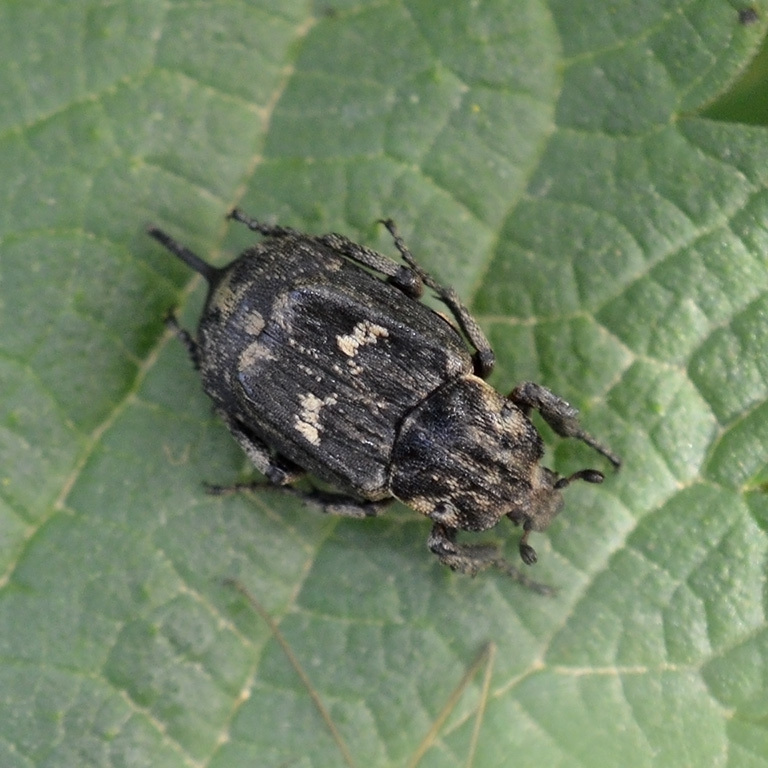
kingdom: Animalia
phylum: Arthropoda
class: Insecta
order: Coleoptera
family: Scarabaeidae
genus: Valgus
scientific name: Valgus hemipterus
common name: Bug flower chafer
